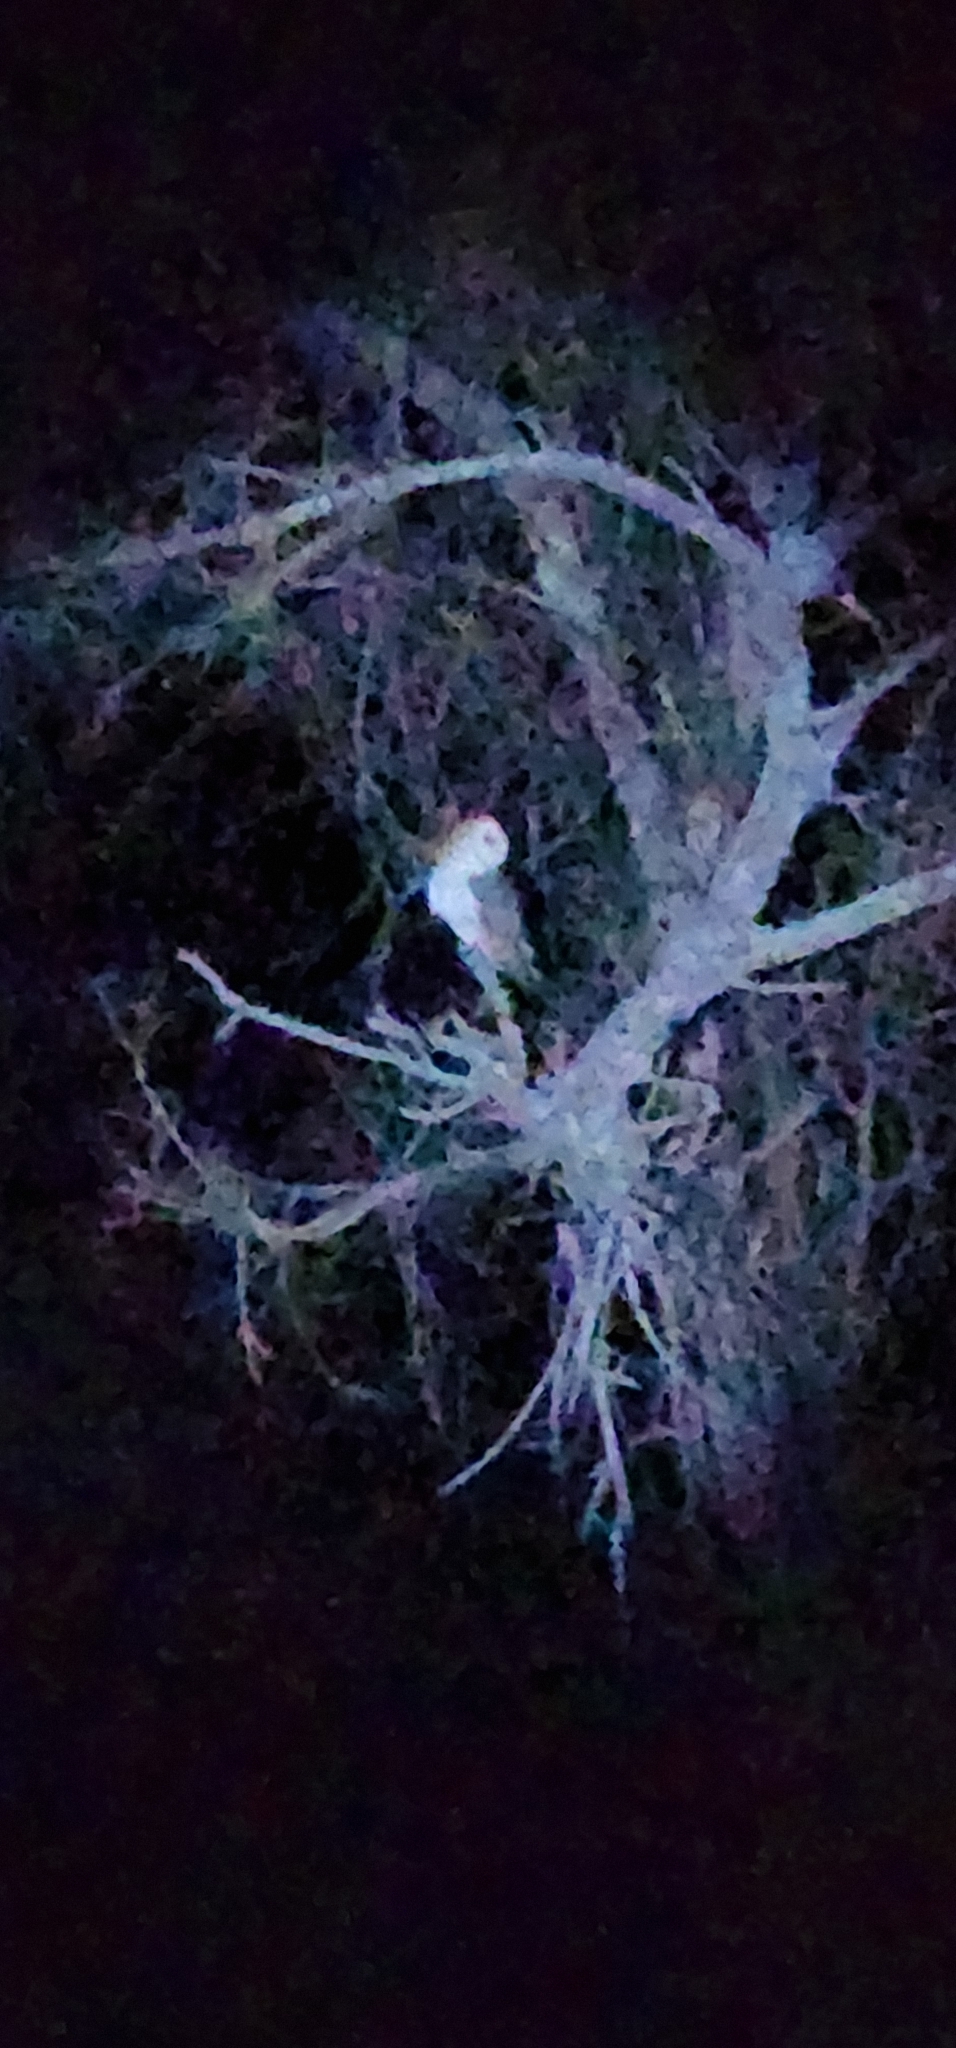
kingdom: Animalia
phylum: Chordata
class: Aves
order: Strigiformes
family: Tytonidae
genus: Tyto
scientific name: Tyto alba
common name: Barn owl
